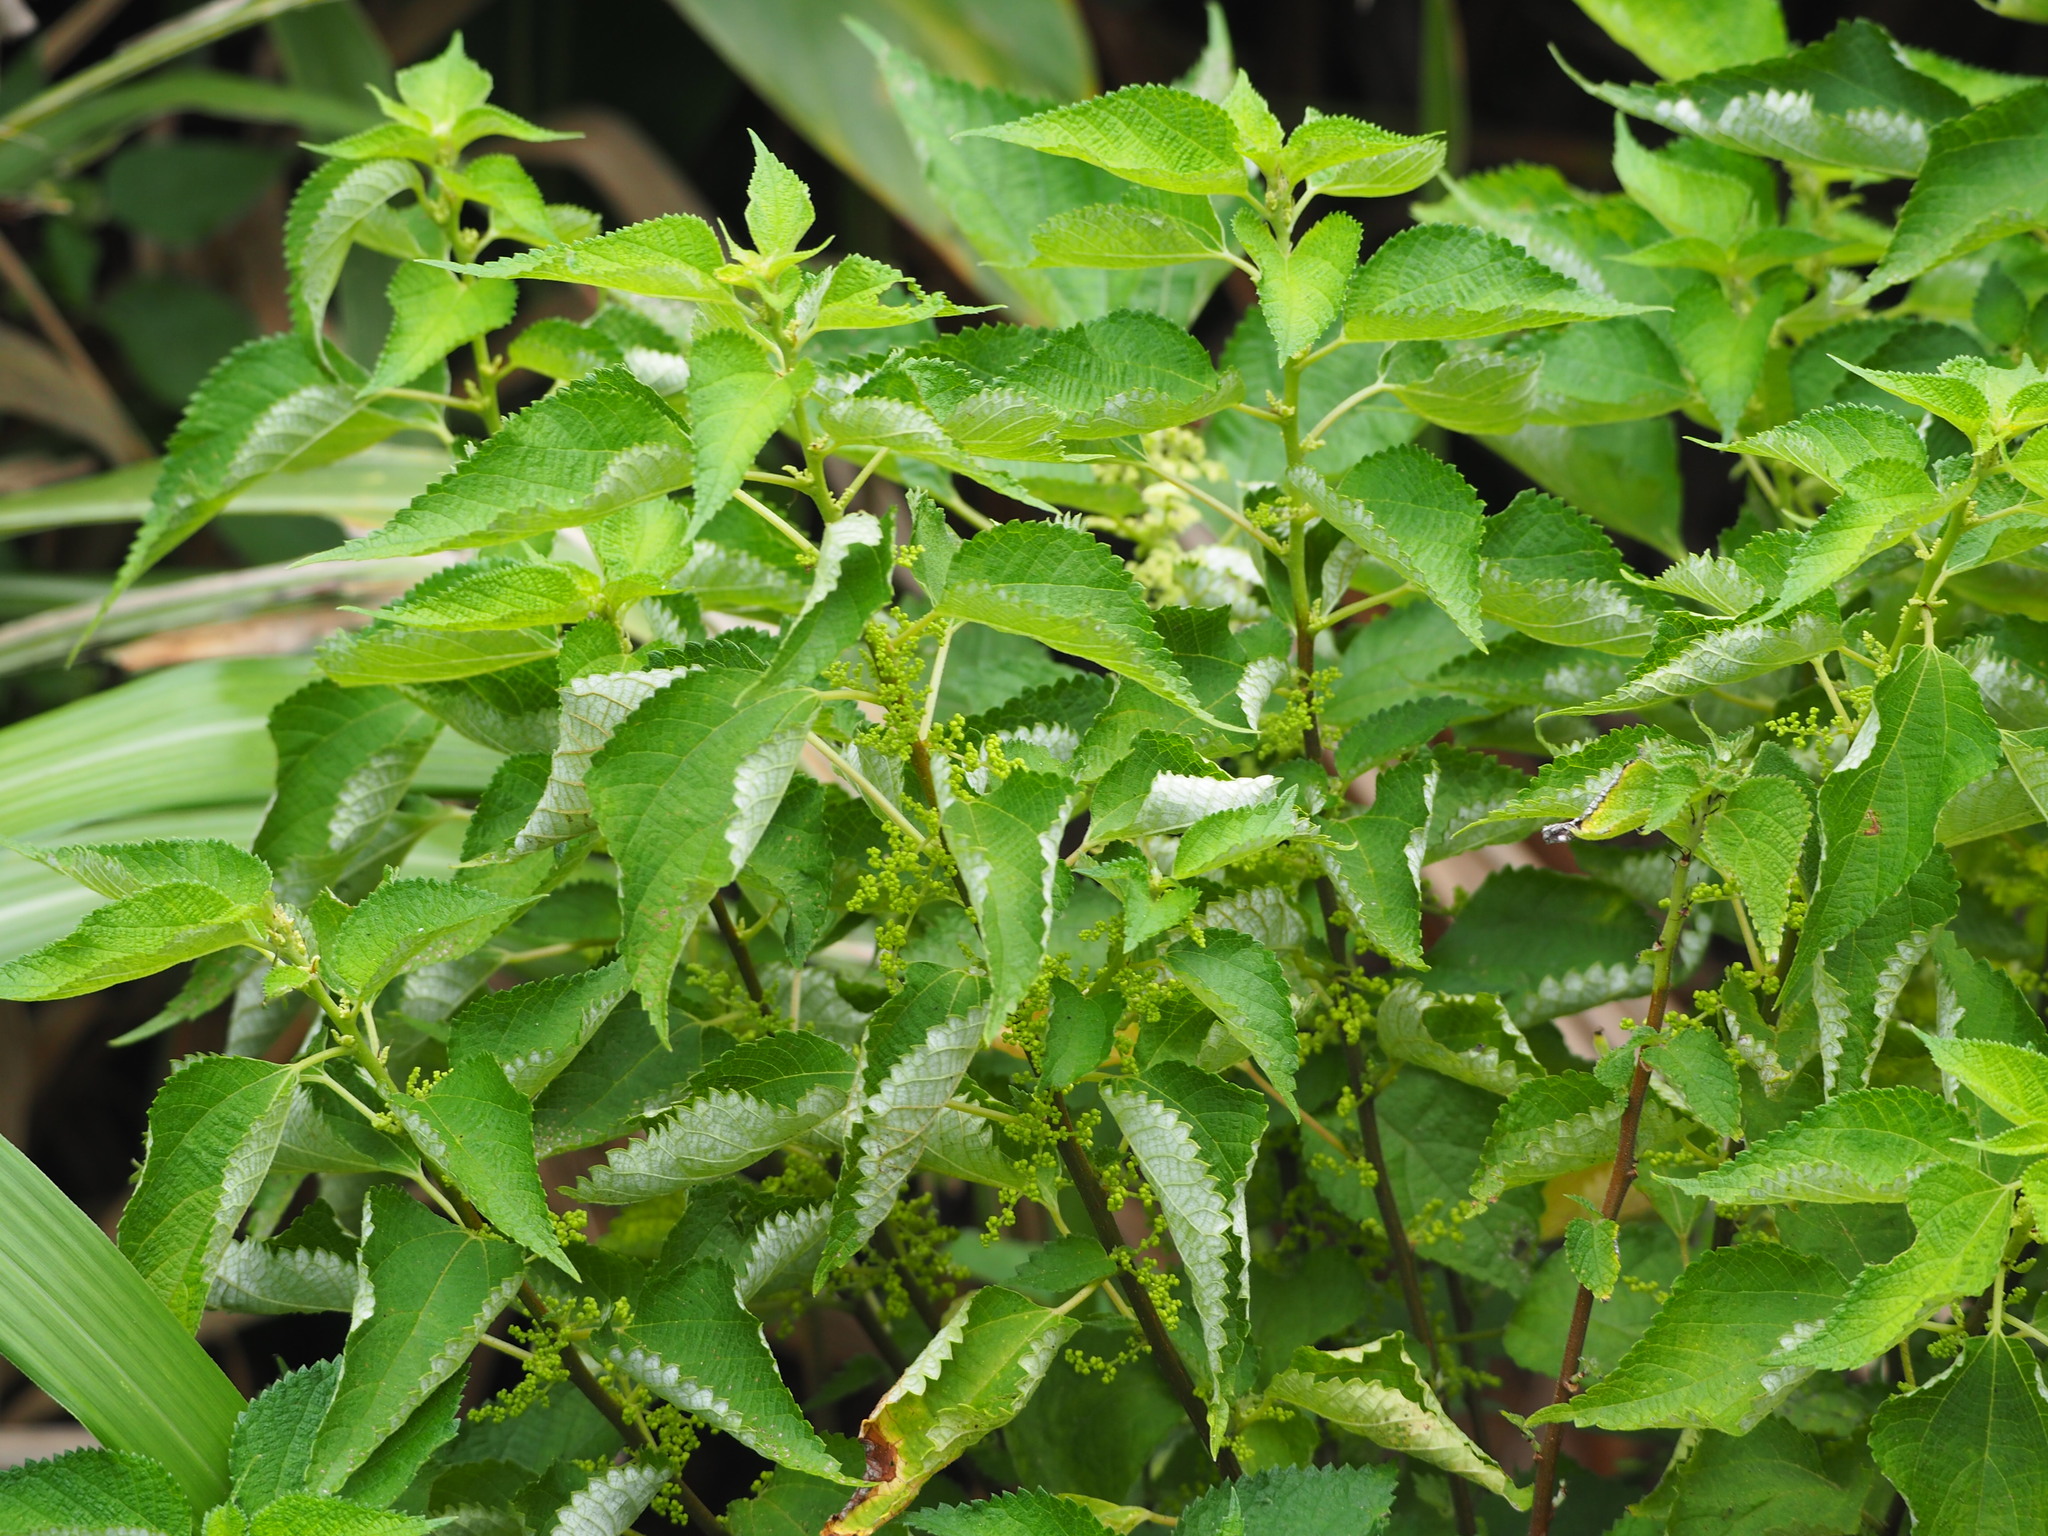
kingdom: Plantae
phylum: Tracheophyta
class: Magnoliopsida
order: Rosales
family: Urticaceae
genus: Boehmeria
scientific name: Boehmeria nivea
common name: Ramie chinese grass
